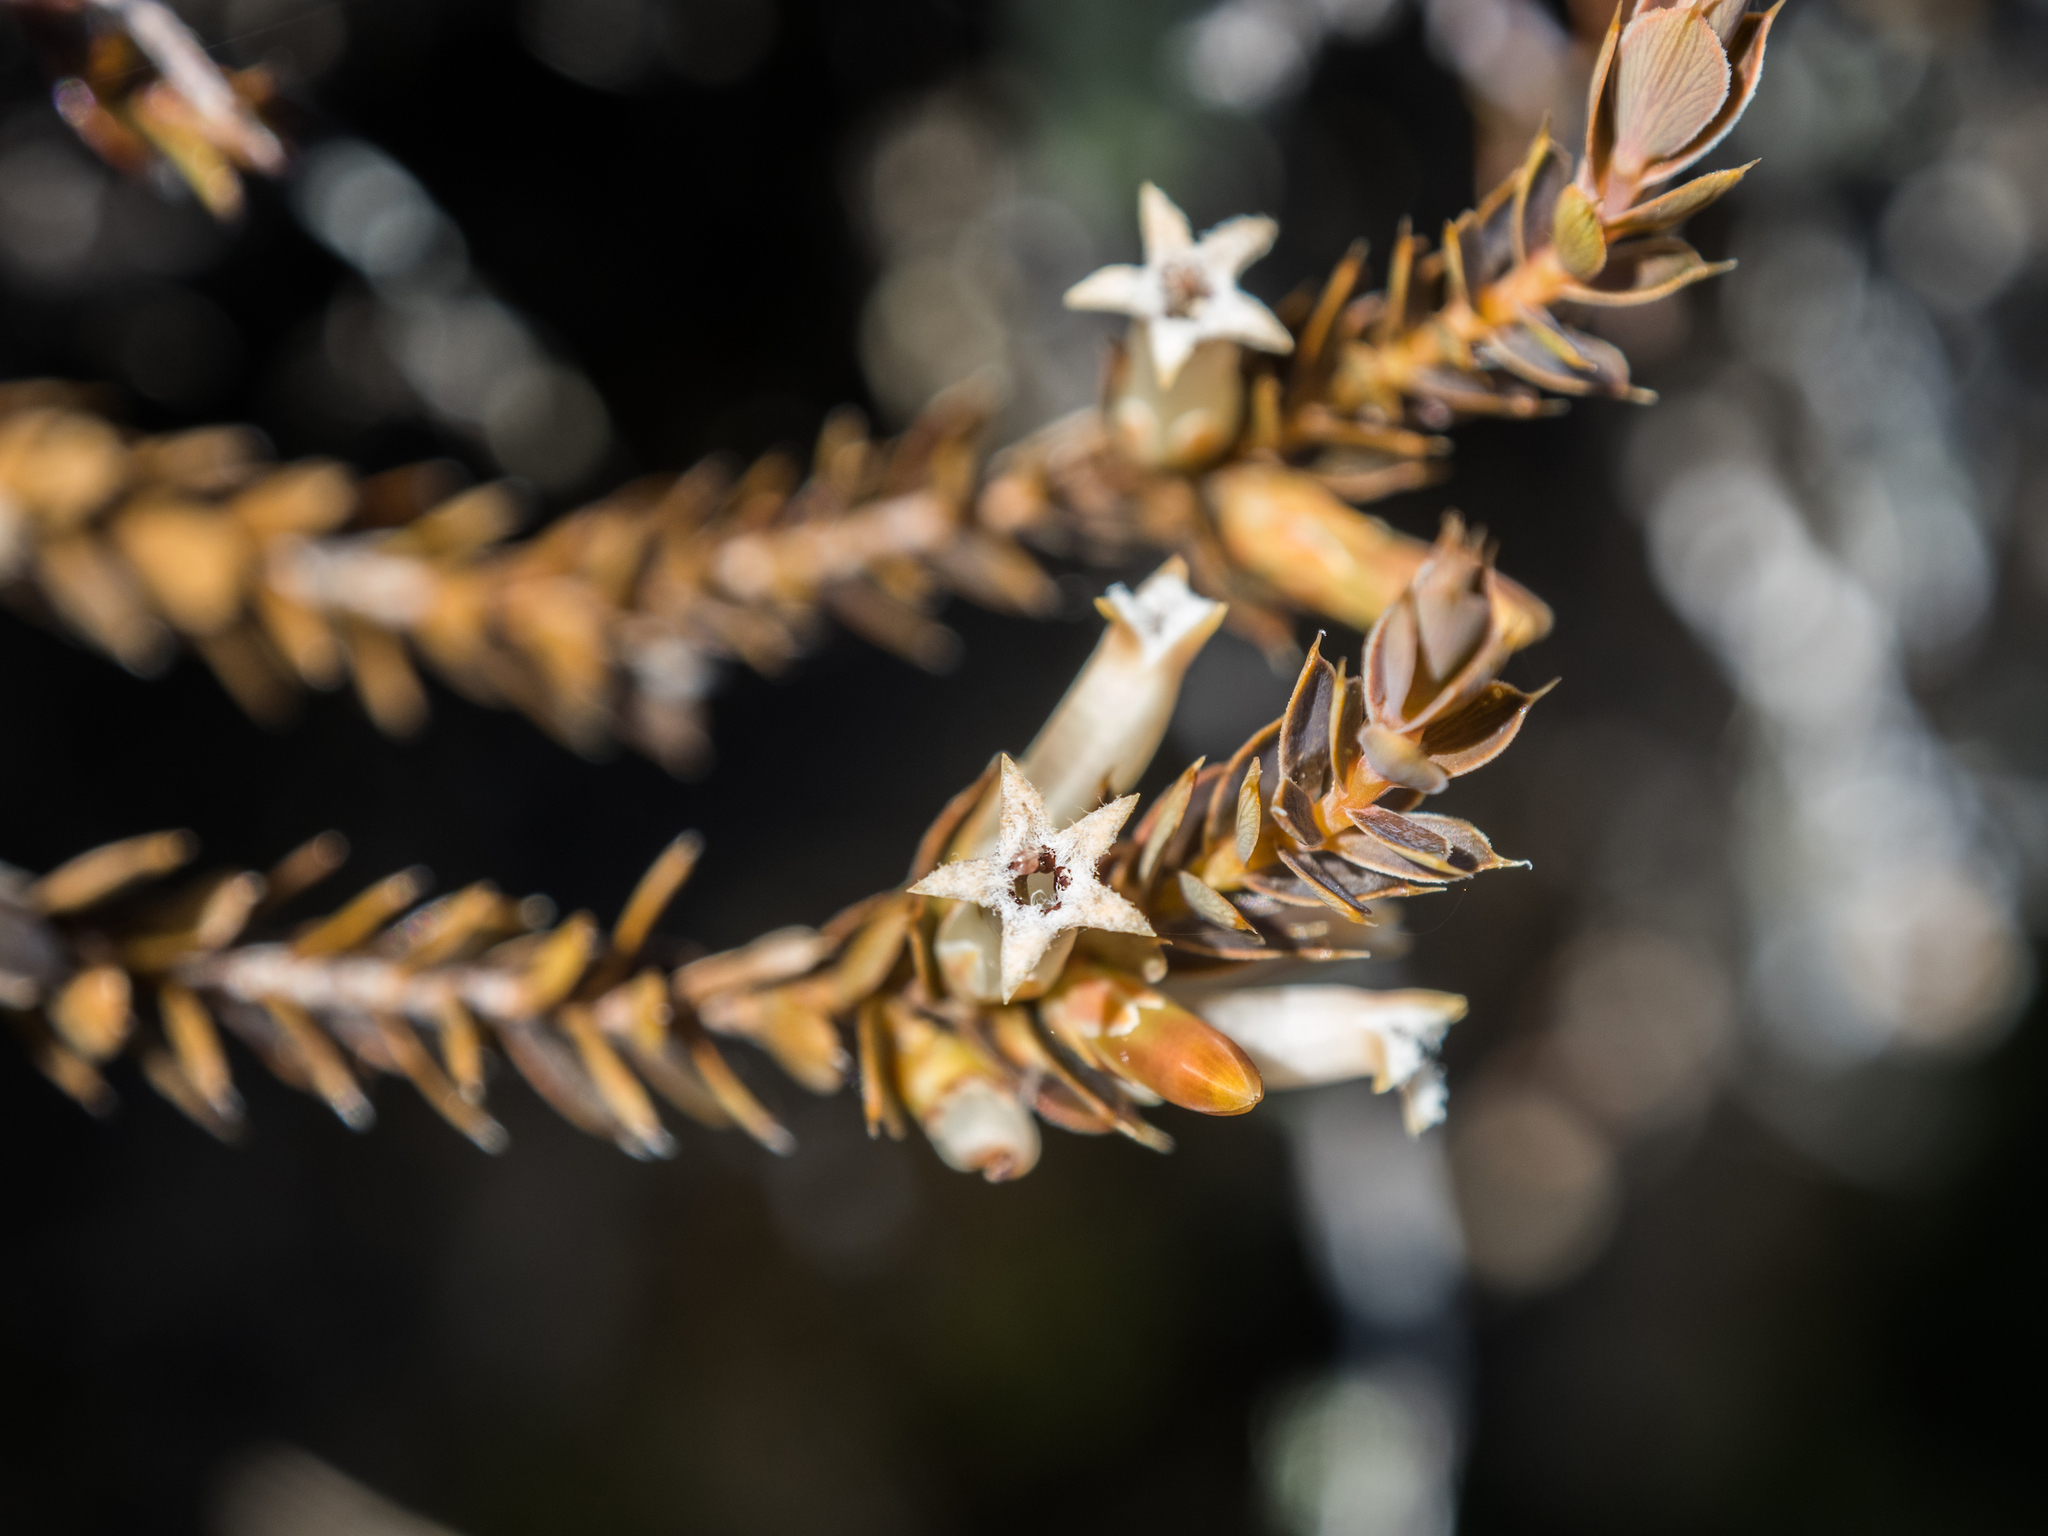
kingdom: Plantae
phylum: Tracheophyta
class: Magnoliopsida
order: Ericales
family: Ericaceae
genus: Styphelia
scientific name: Styphelia nesophila
